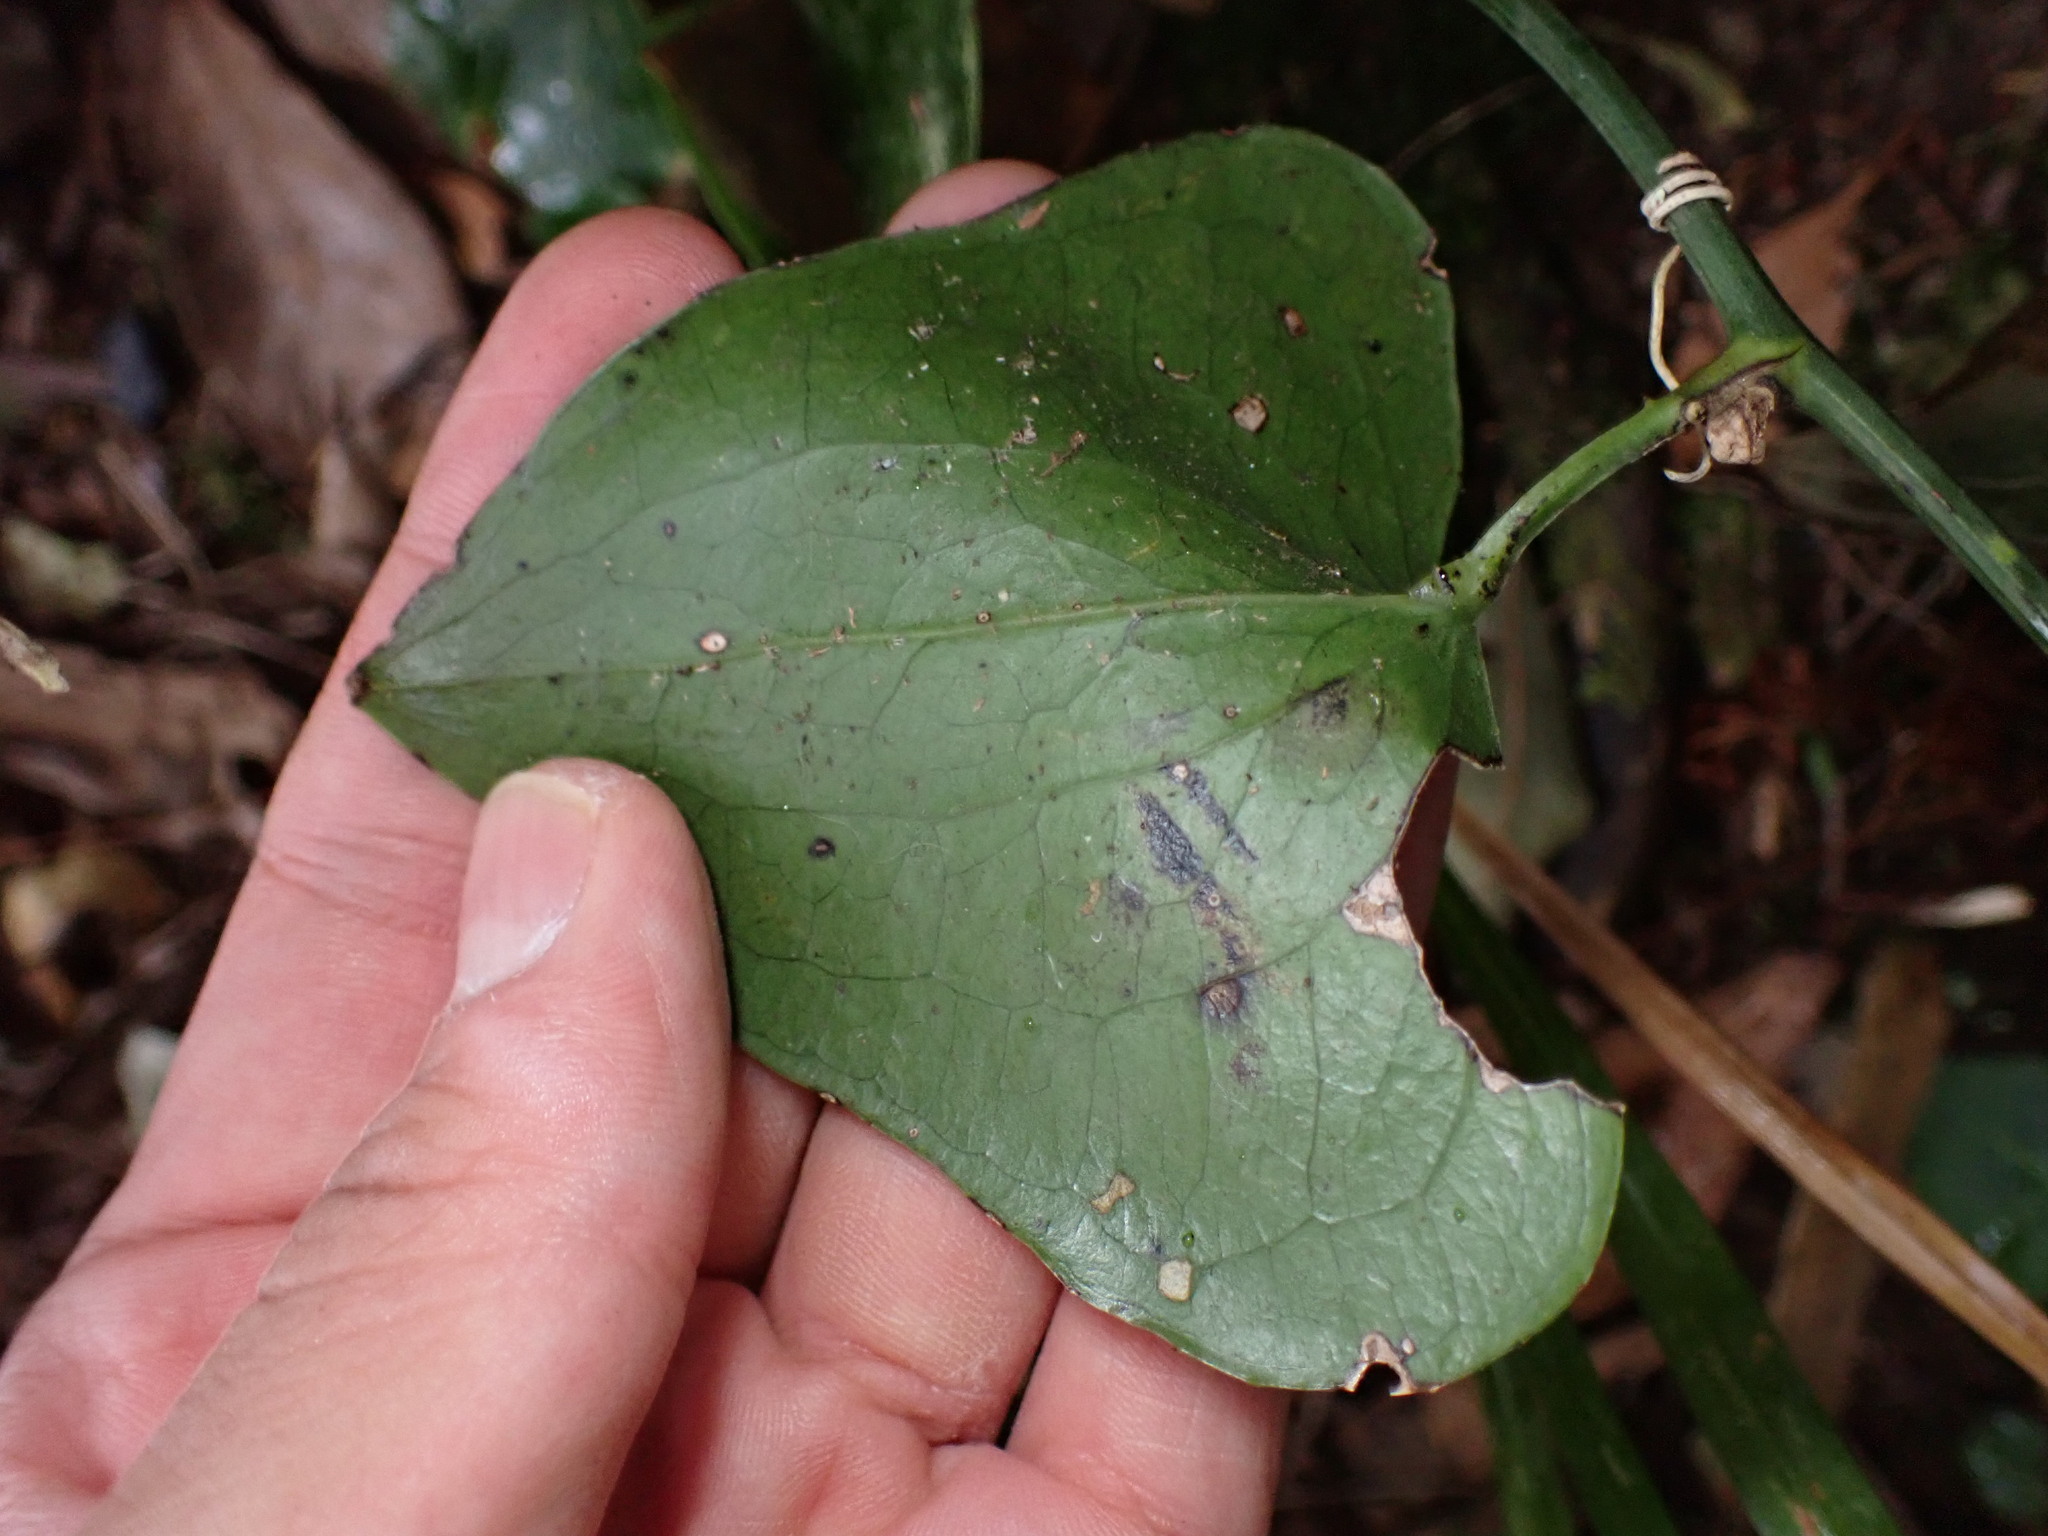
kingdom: Plantae
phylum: Tracheophyta
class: Liliopsida
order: Liliales
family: Smilacaceae
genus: Smilax
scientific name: Smilax aspera
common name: Common smilax
